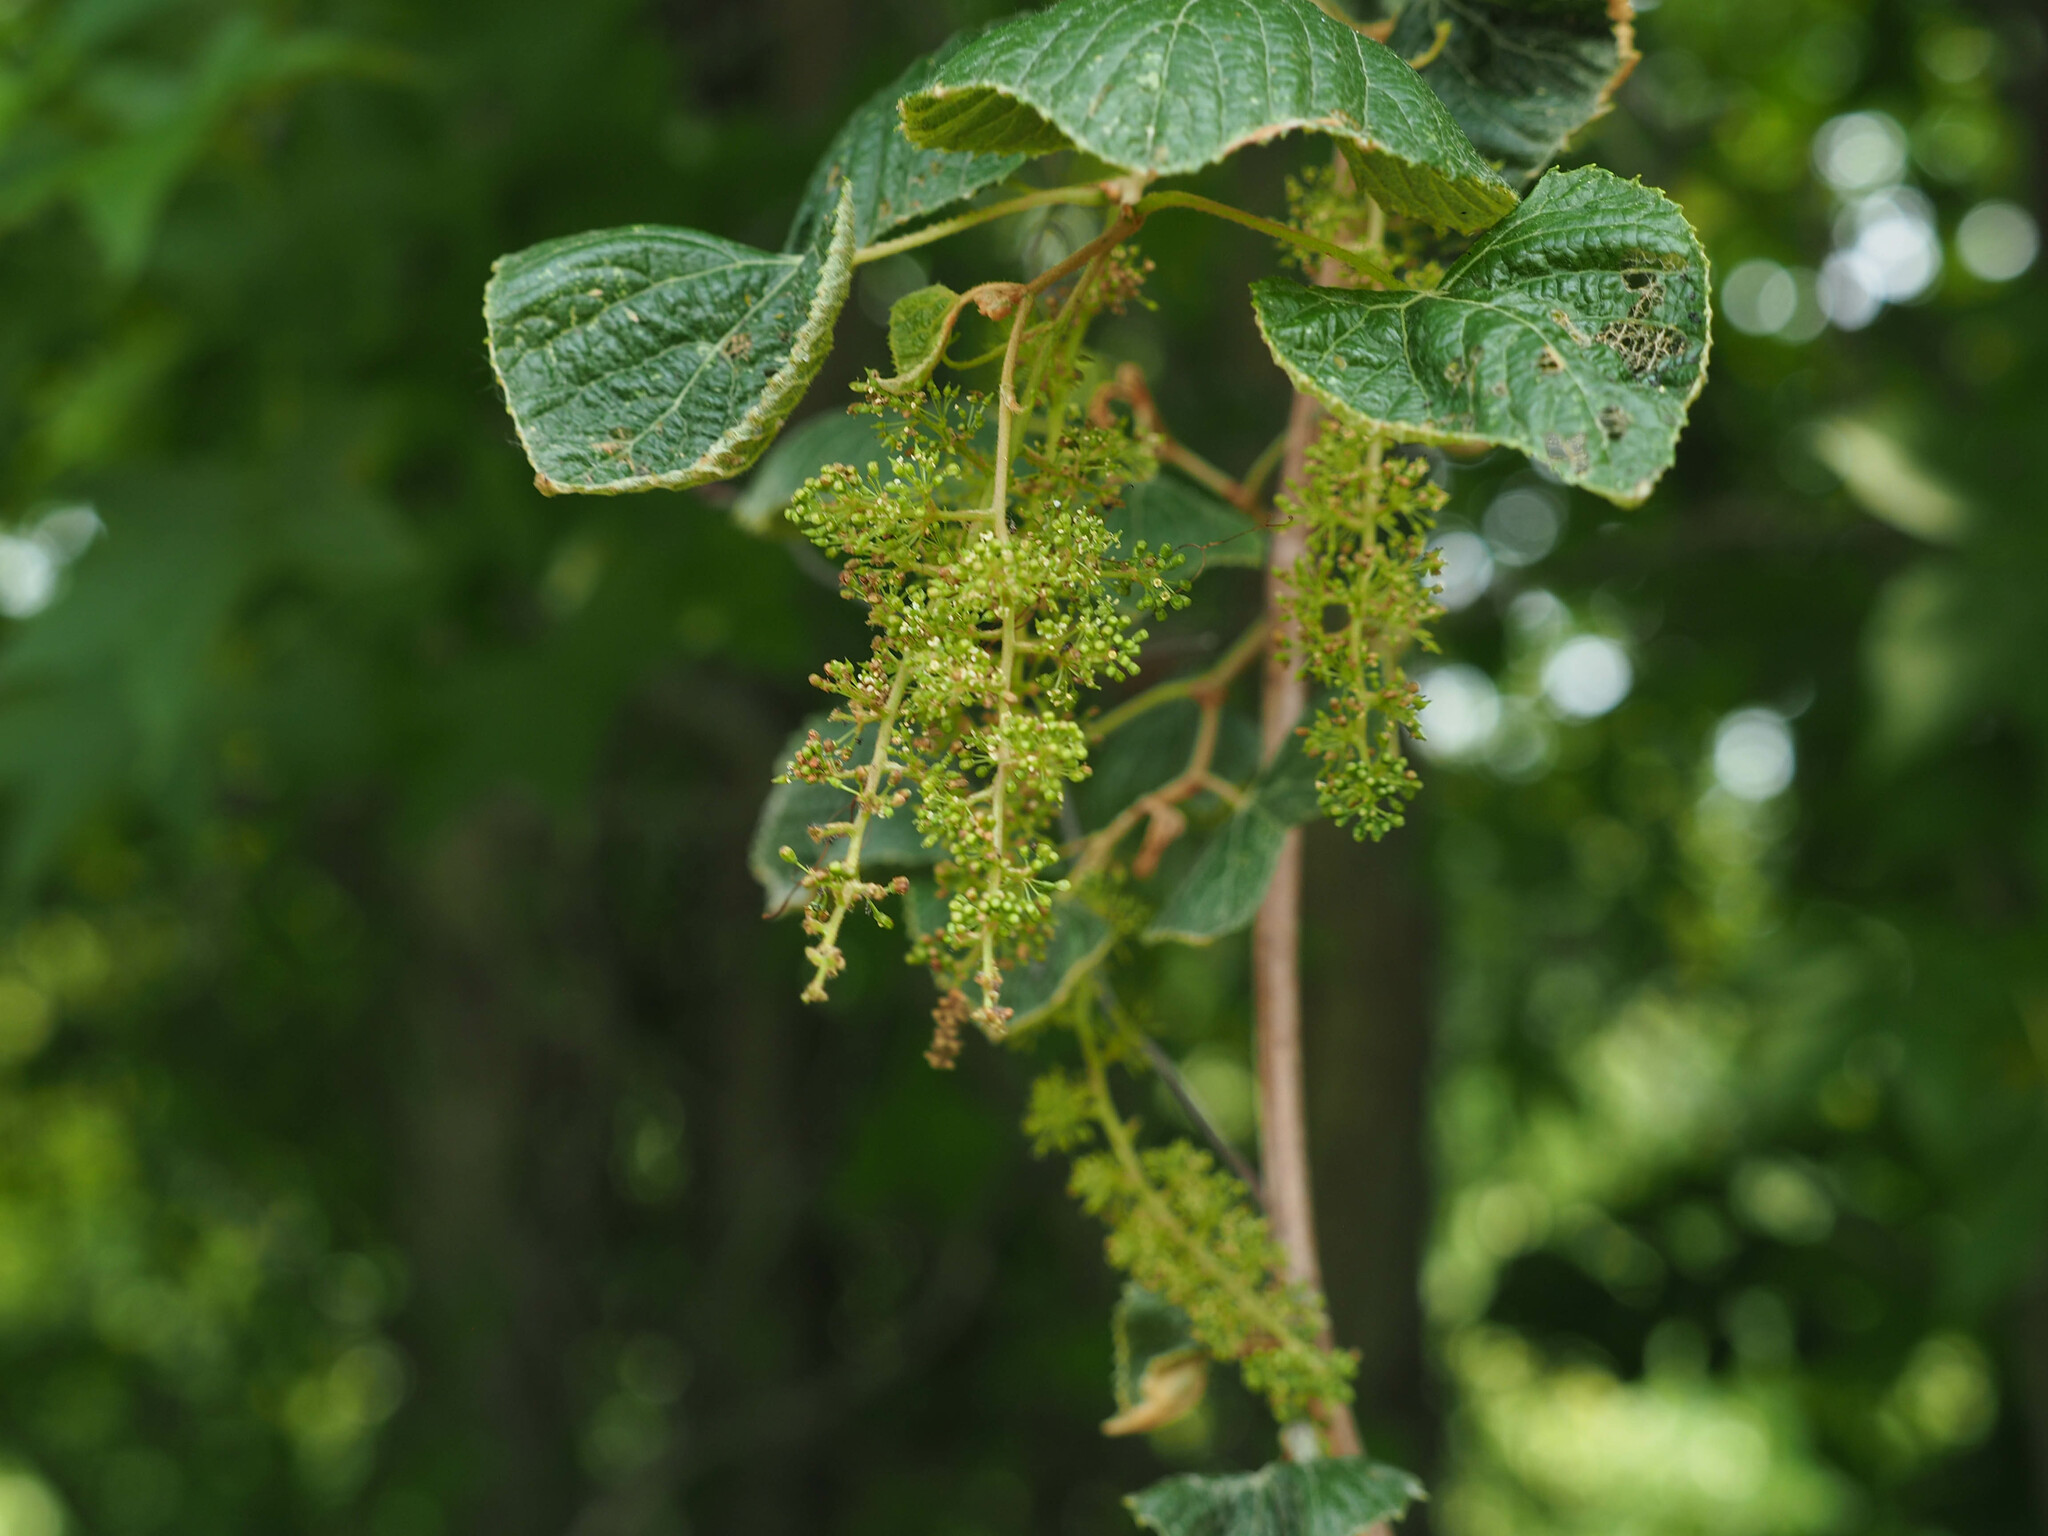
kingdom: Plantae
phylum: Tracheophyta
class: Magnoliopsida
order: Vitales
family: Vitaceae
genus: Vitis
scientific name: Vitis vulpina
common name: Frost grape
